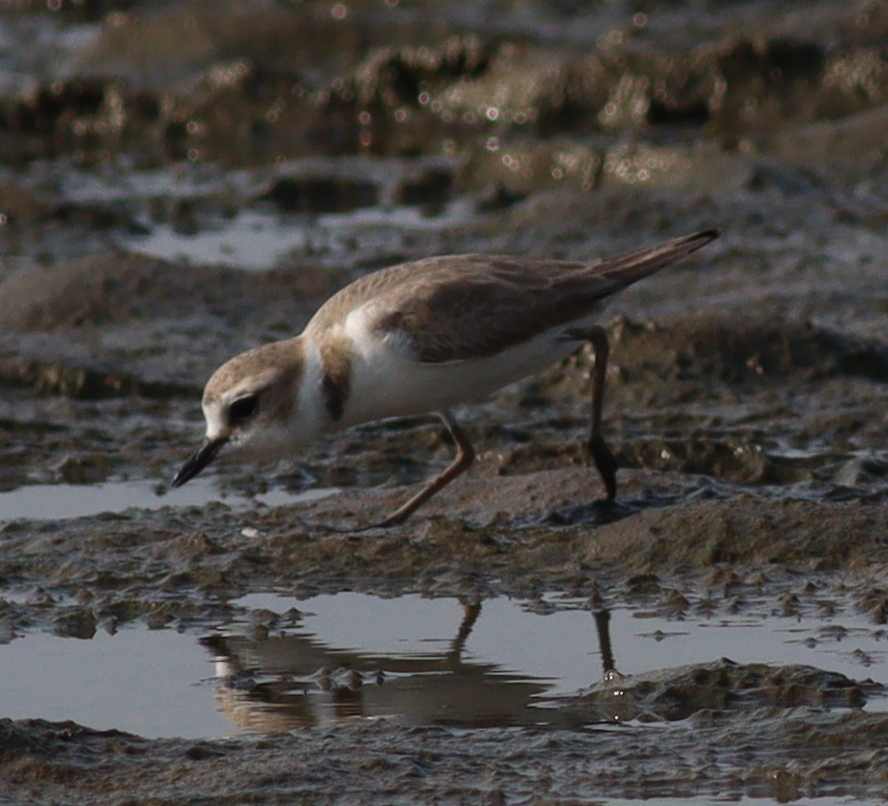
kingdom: Animalia
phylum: Chordata
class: Aves
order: Charadriiformes
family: Charadriidae
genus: Charadrius
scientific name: Charadrius alexandrinus
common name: Kentish plover
